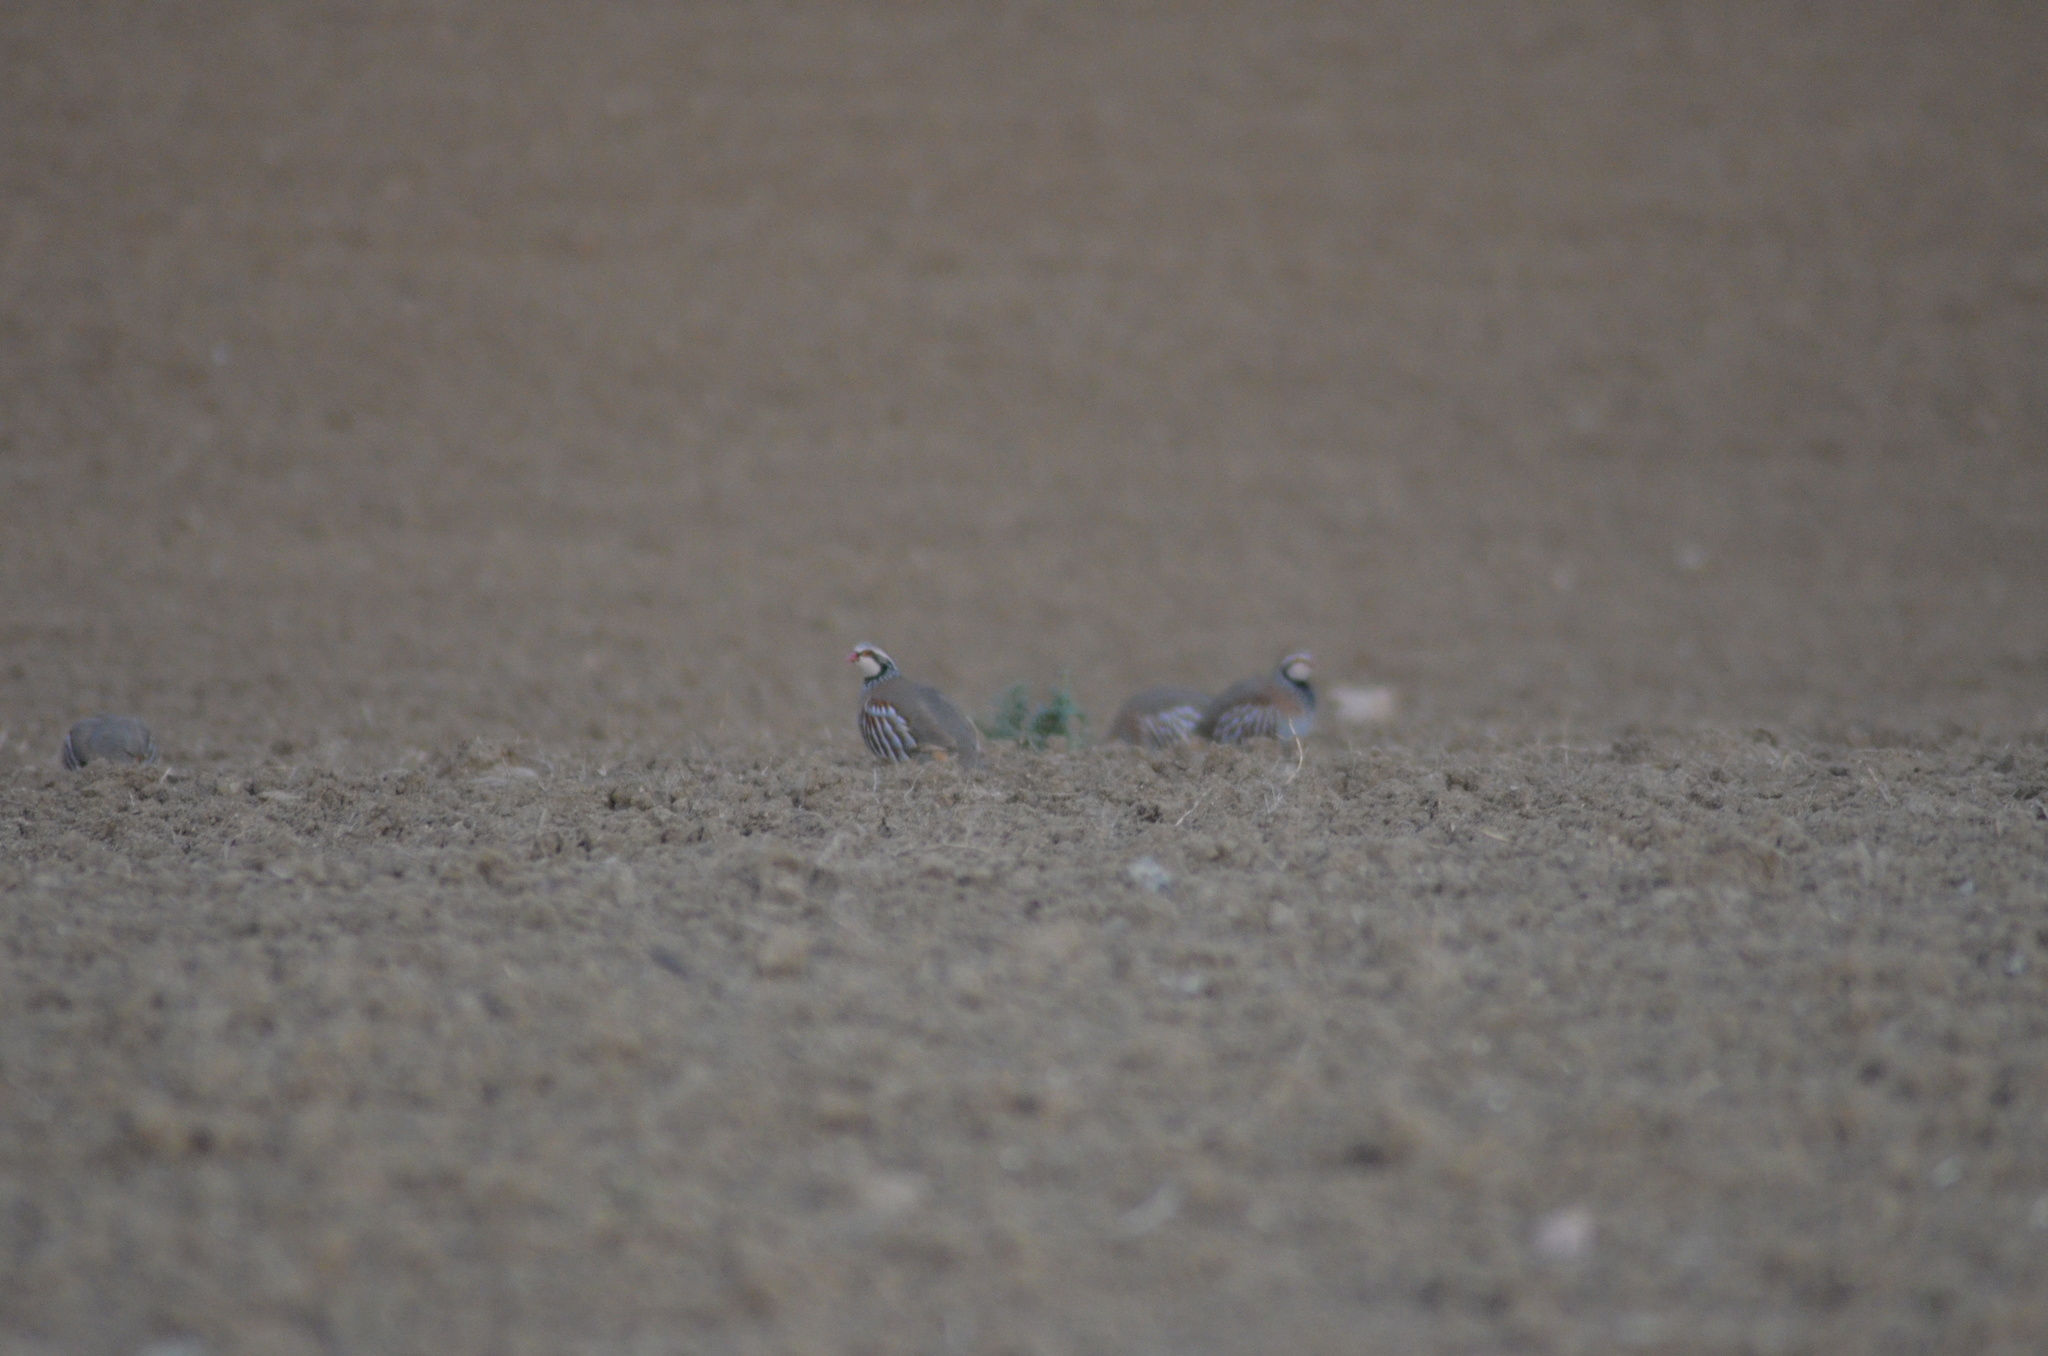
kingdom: Animalia
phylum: Chordata
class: Aves
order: Galliformes
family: Phasianidae
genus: Alectoris
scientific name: Alectoris rufa
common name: Red-legged partridge
